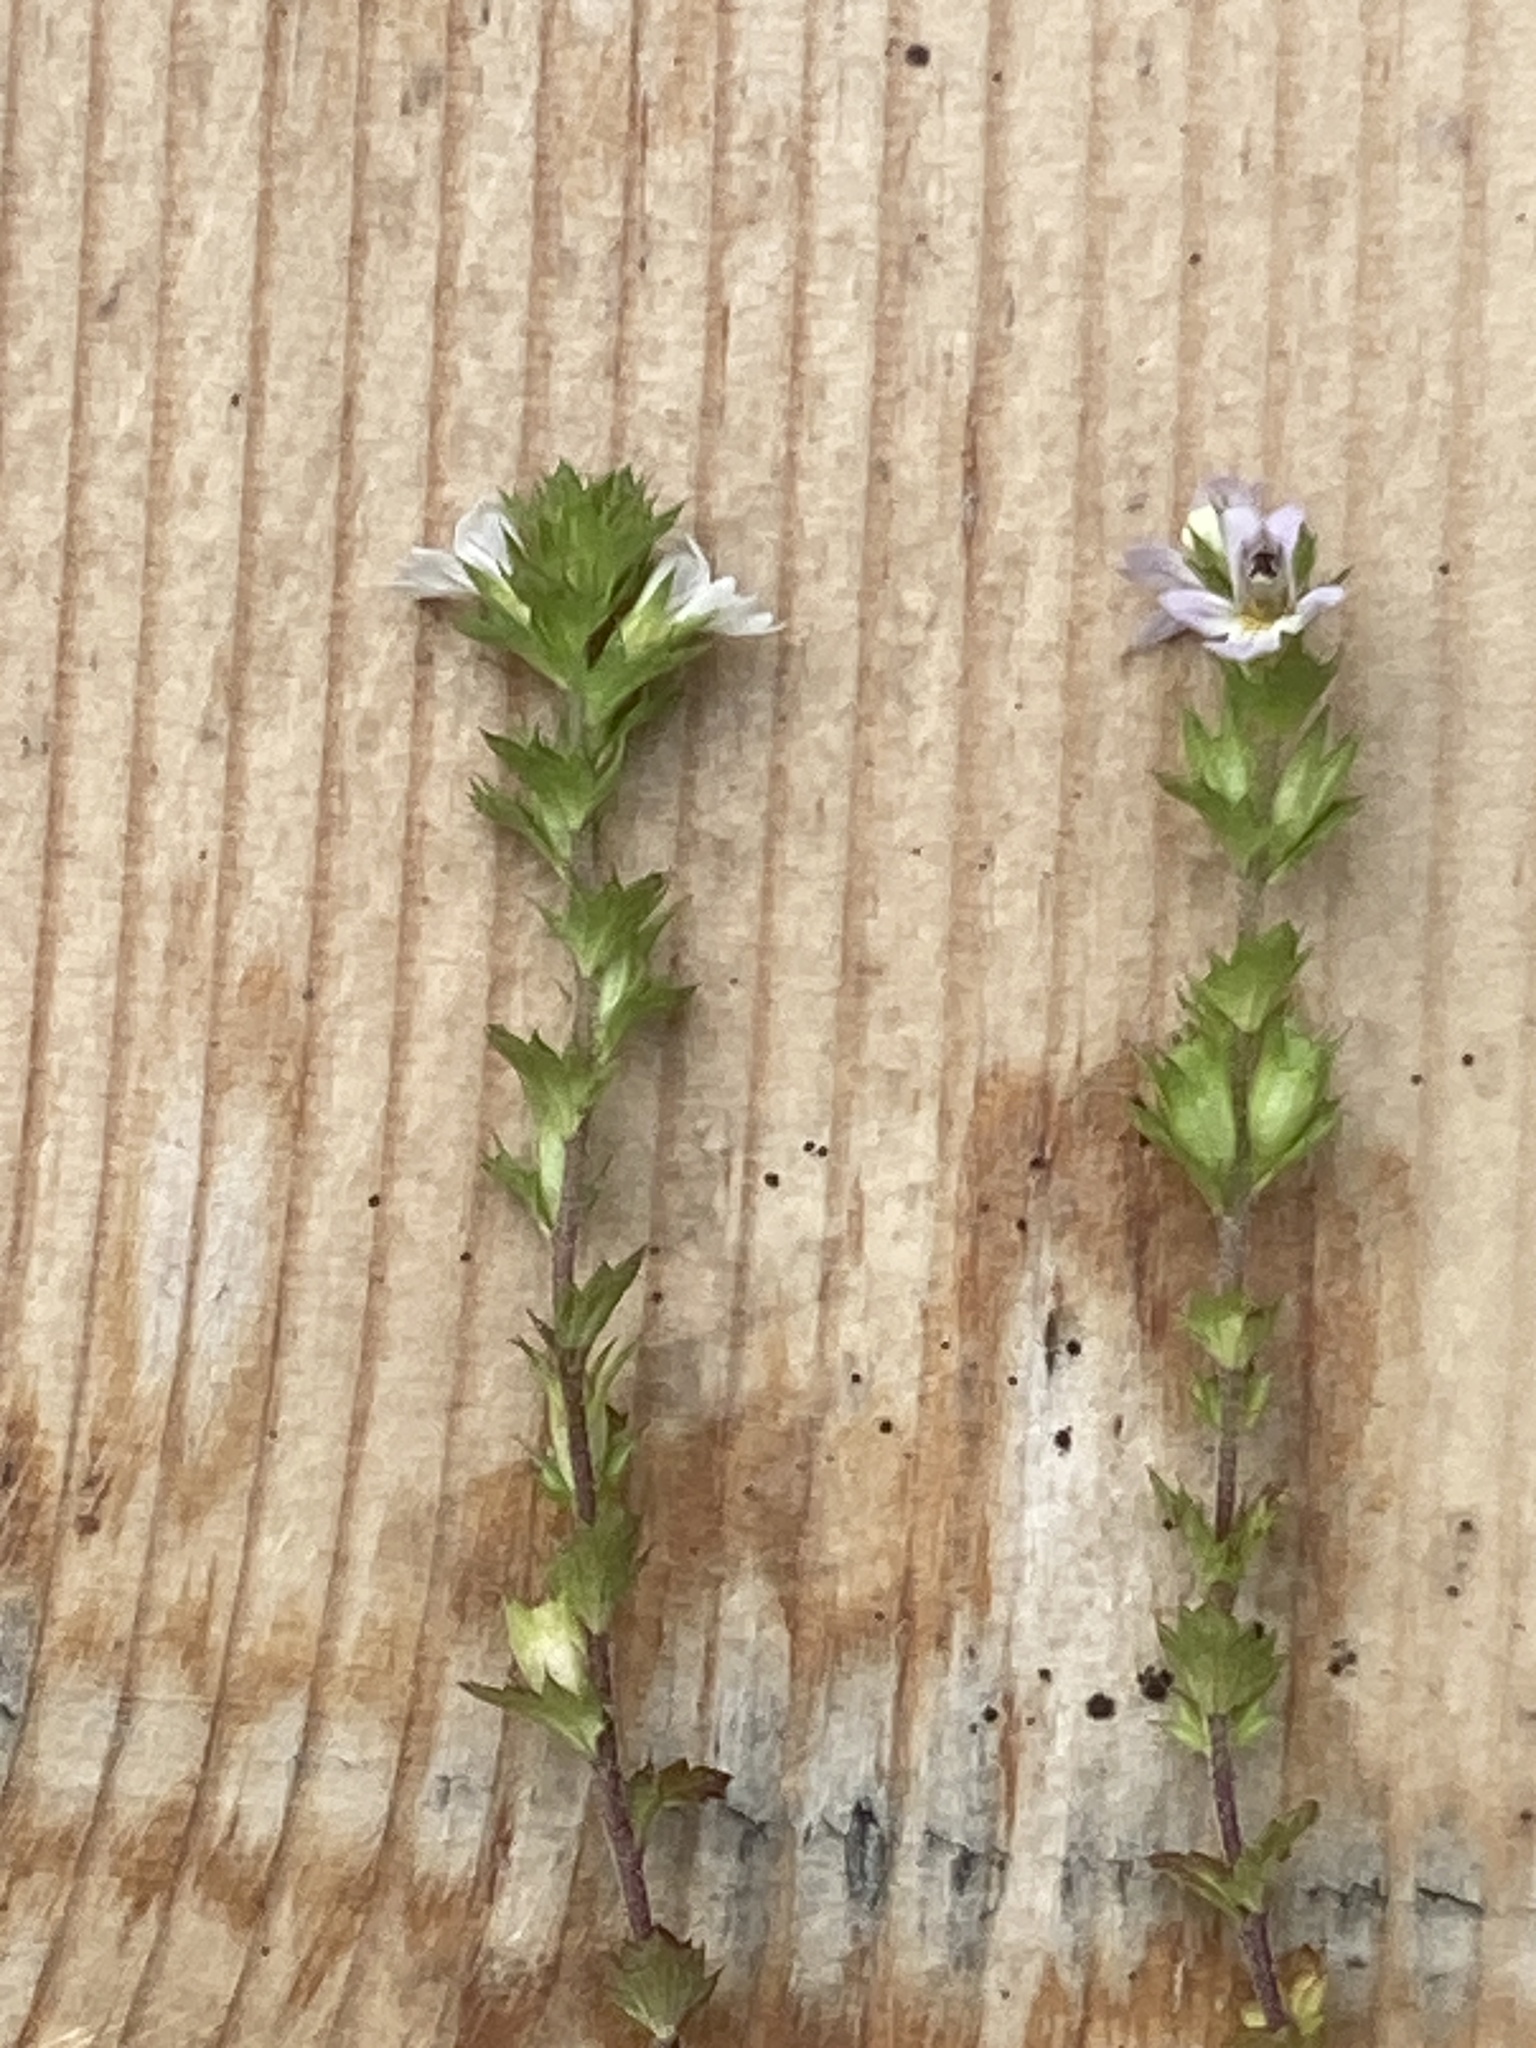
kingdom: Plantae
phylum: Tracheophyta
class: Magnoliopsida
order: Lamiales
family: Orobanchaceae
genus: Euphrasia
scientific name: Euphrasia nemorosa
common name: Common eyebright
